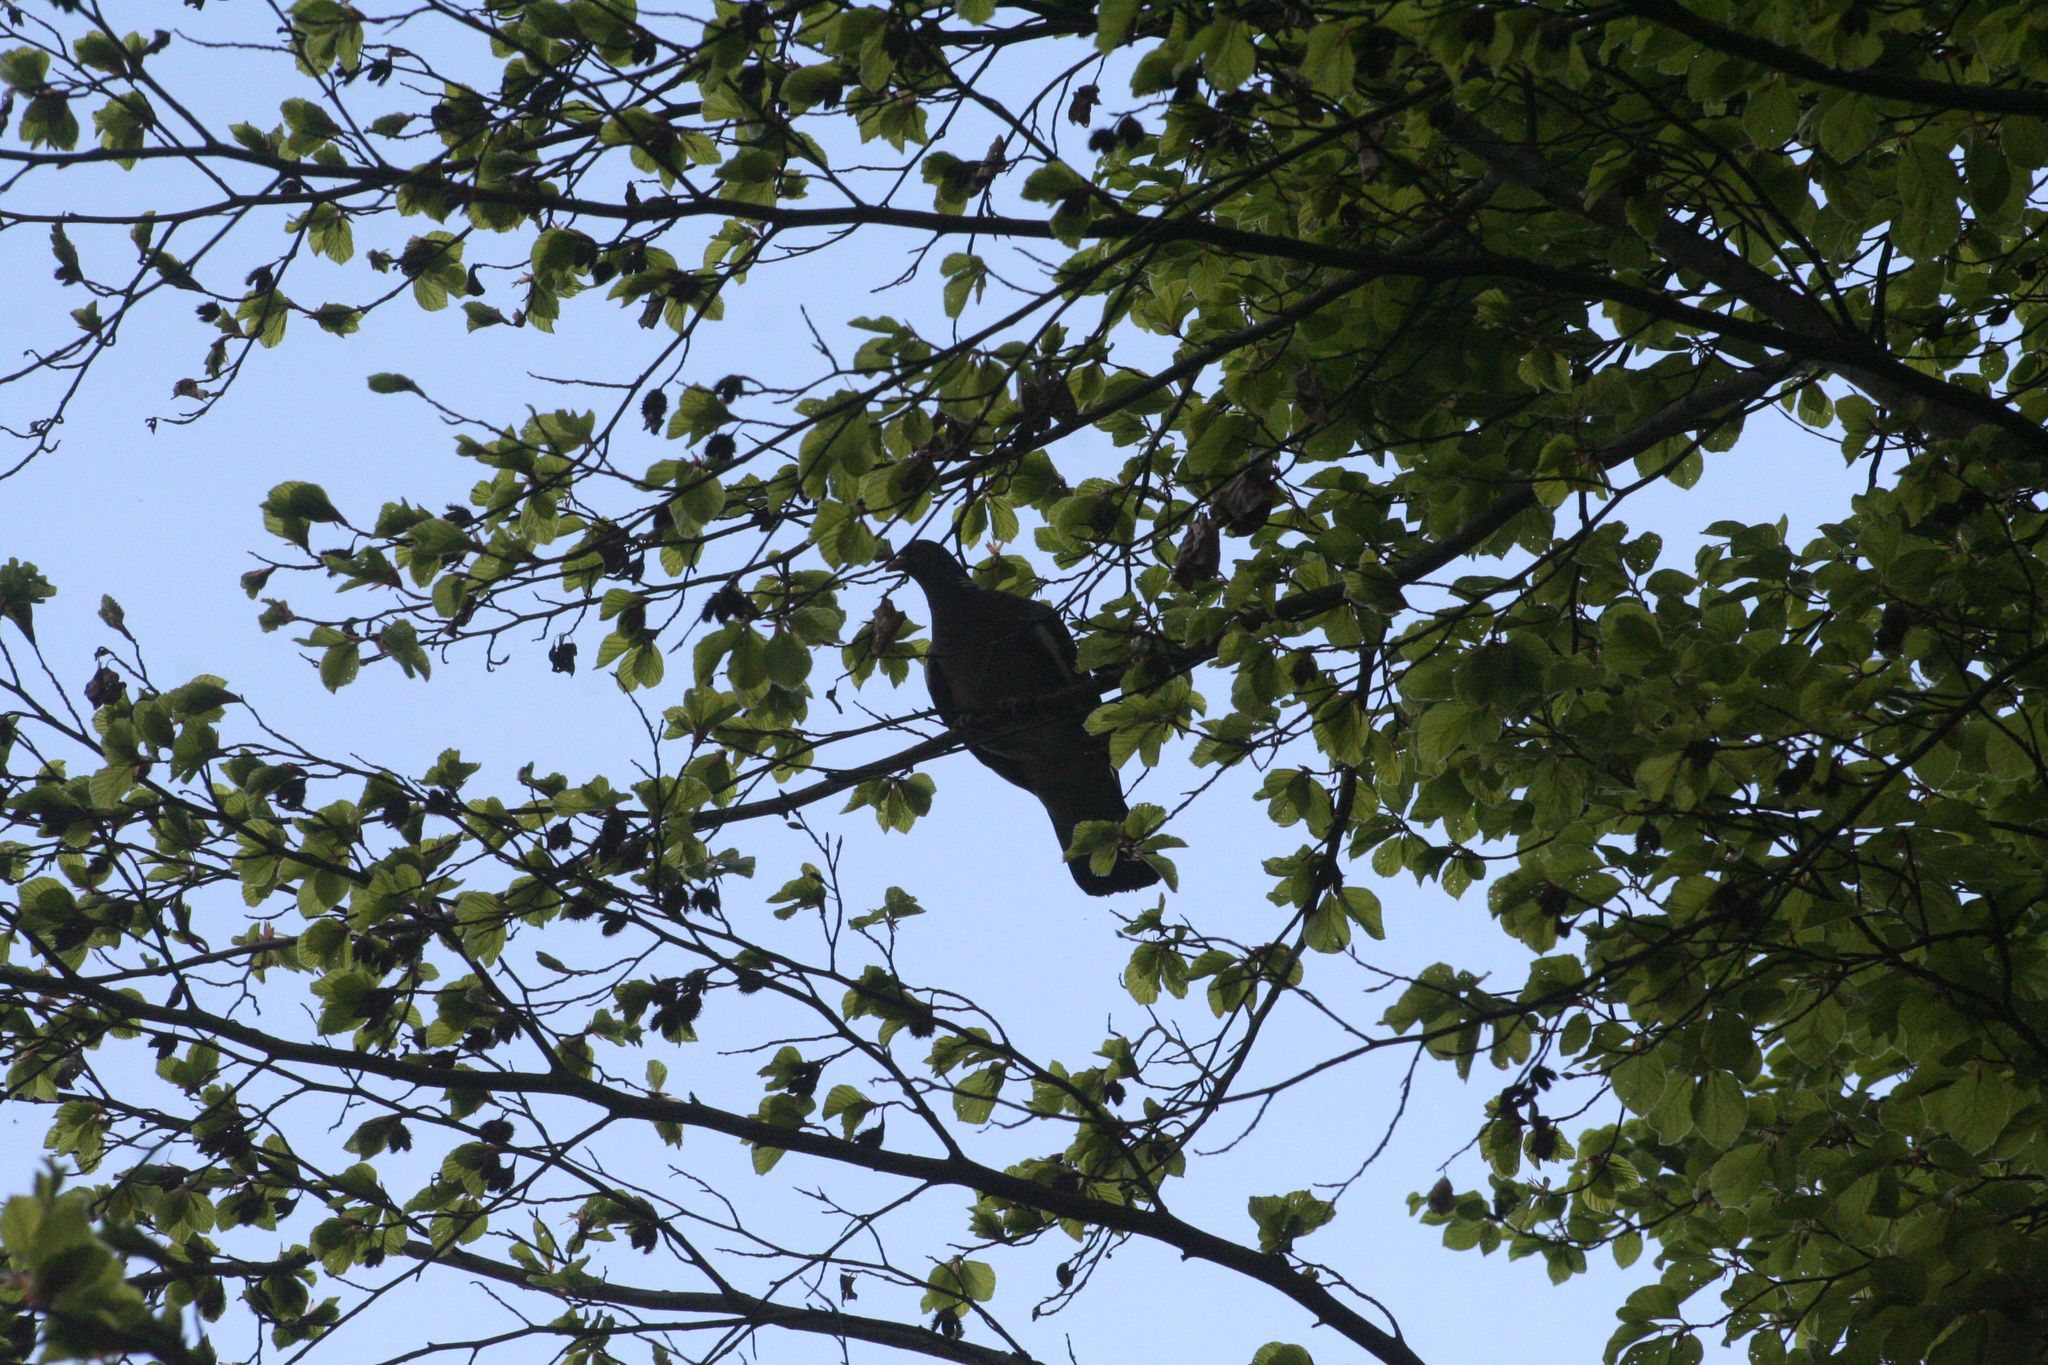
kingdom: Animalia
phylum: Chordata
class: Aves
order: Columbiformes
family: Columbidae
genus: Columba
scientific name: Columba palumbus
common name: Common wood pigeon
